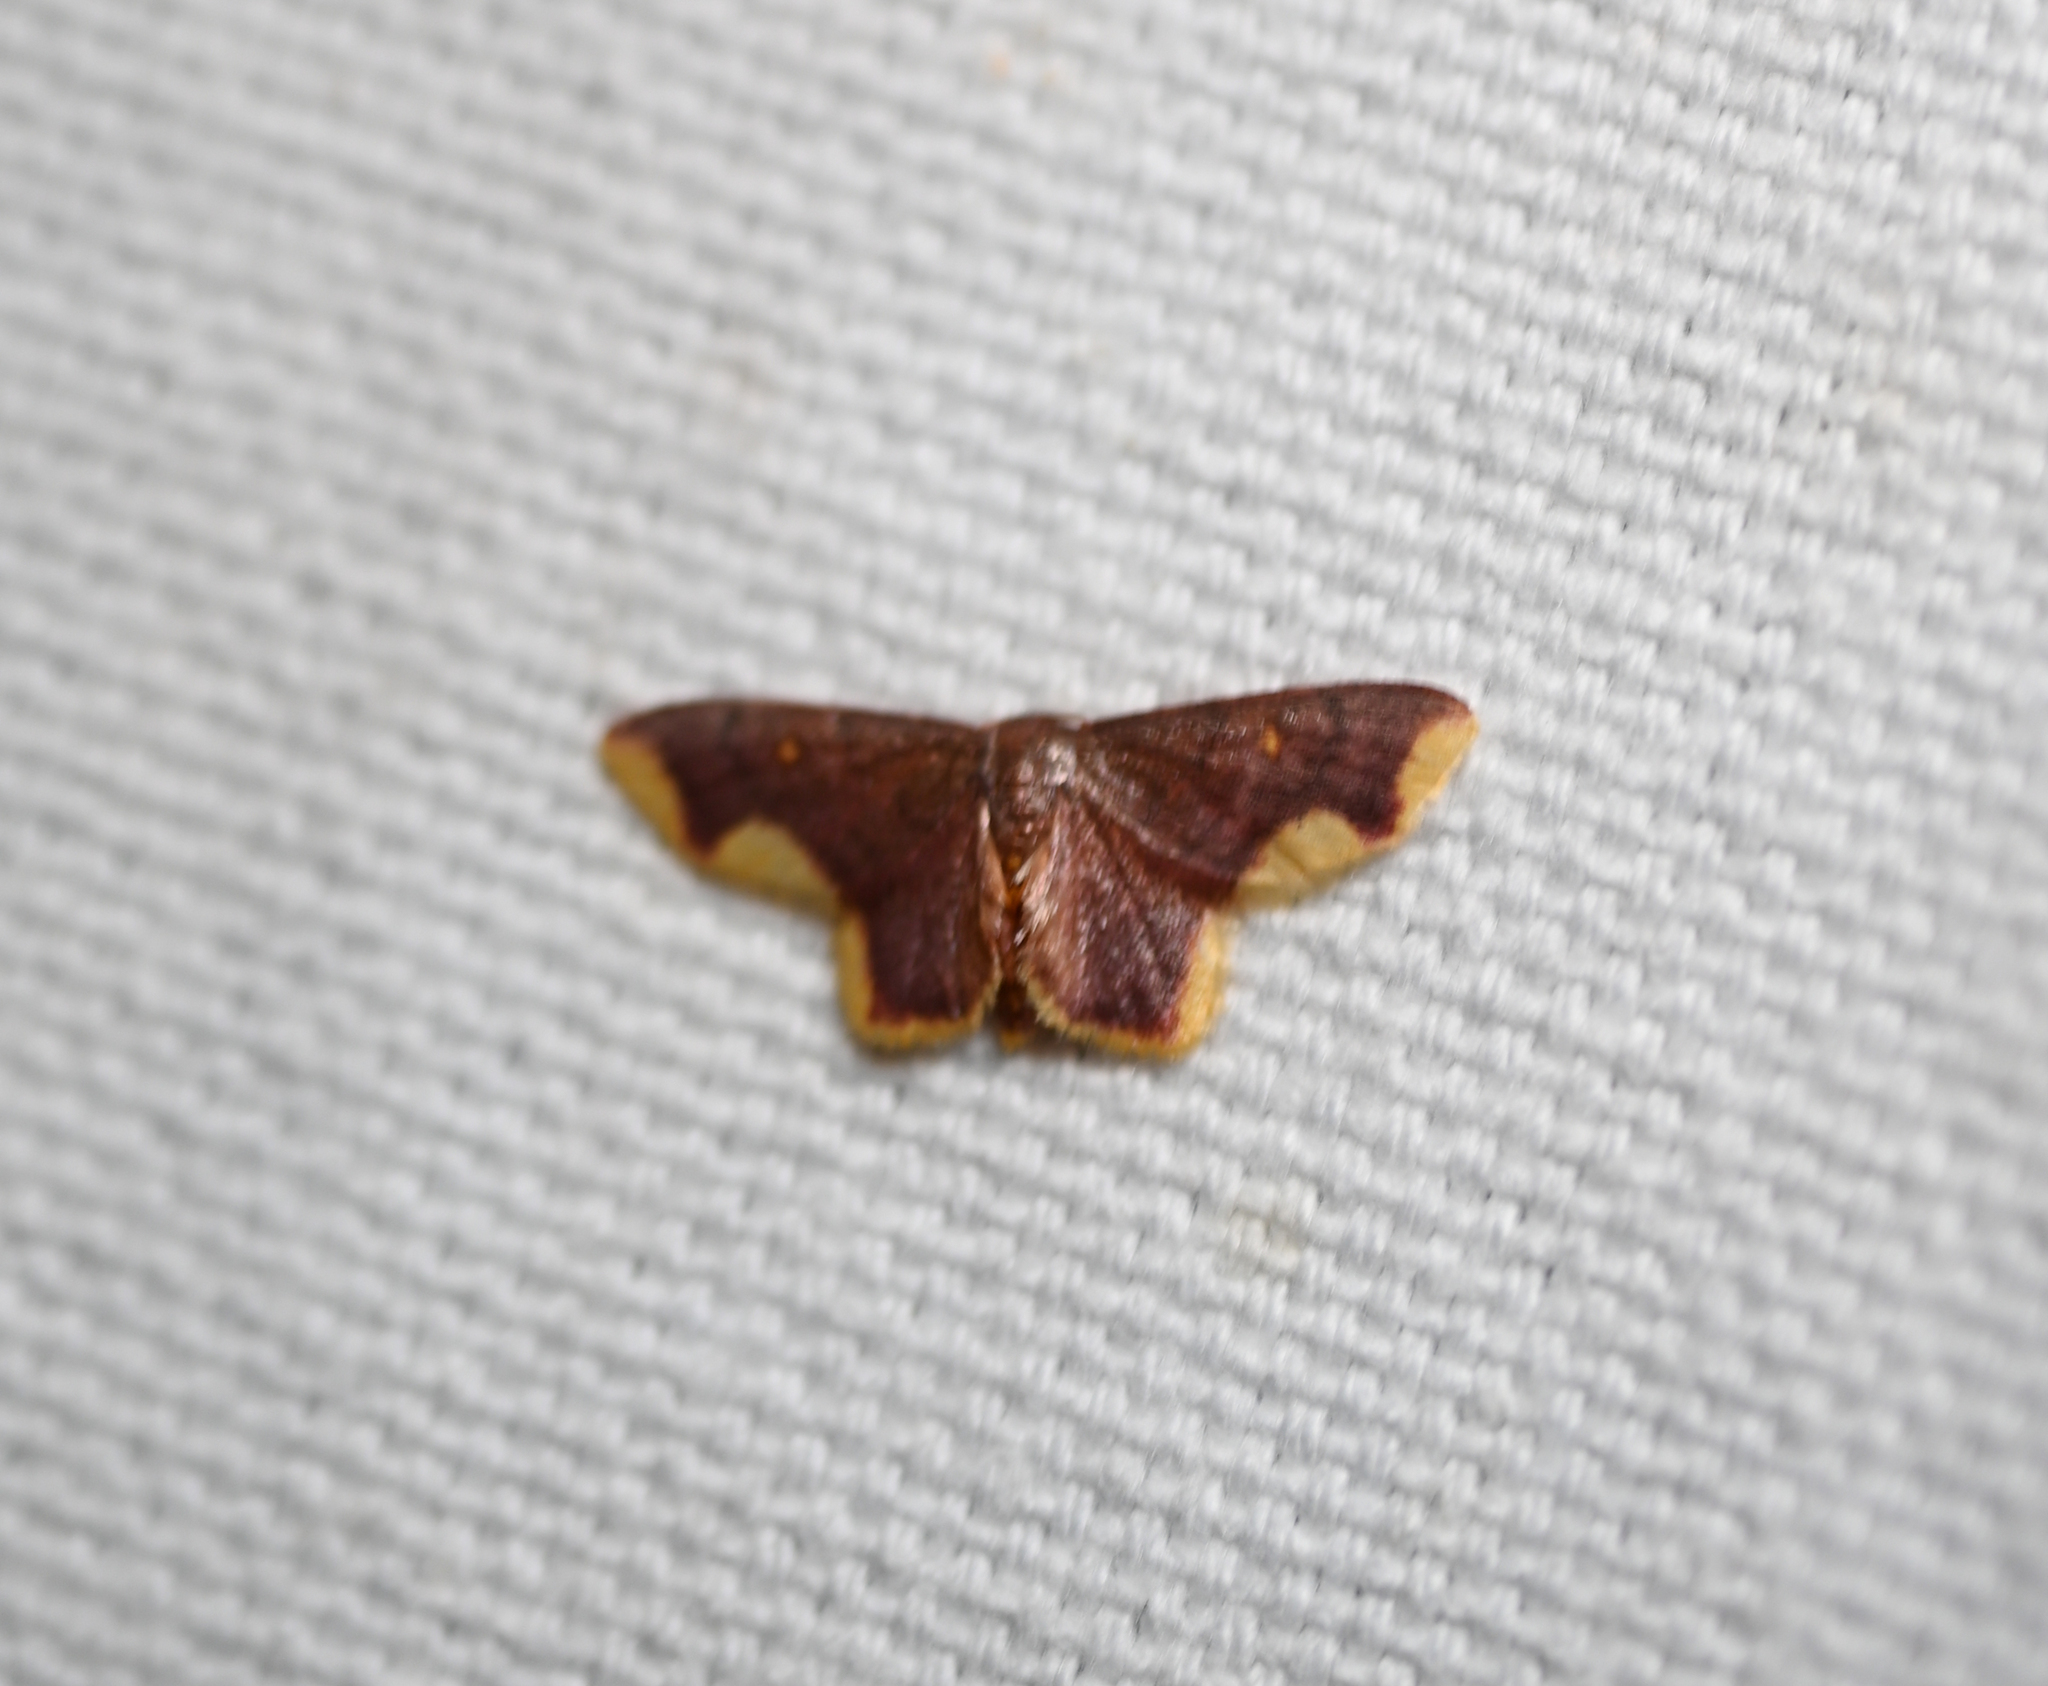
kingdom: Animalia
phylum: Arthropoda
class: Insecta
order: Lepidoptera
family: Geometridae
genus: Lophosis
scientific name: Lophosis labeculata
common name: Stained lophosis moth
